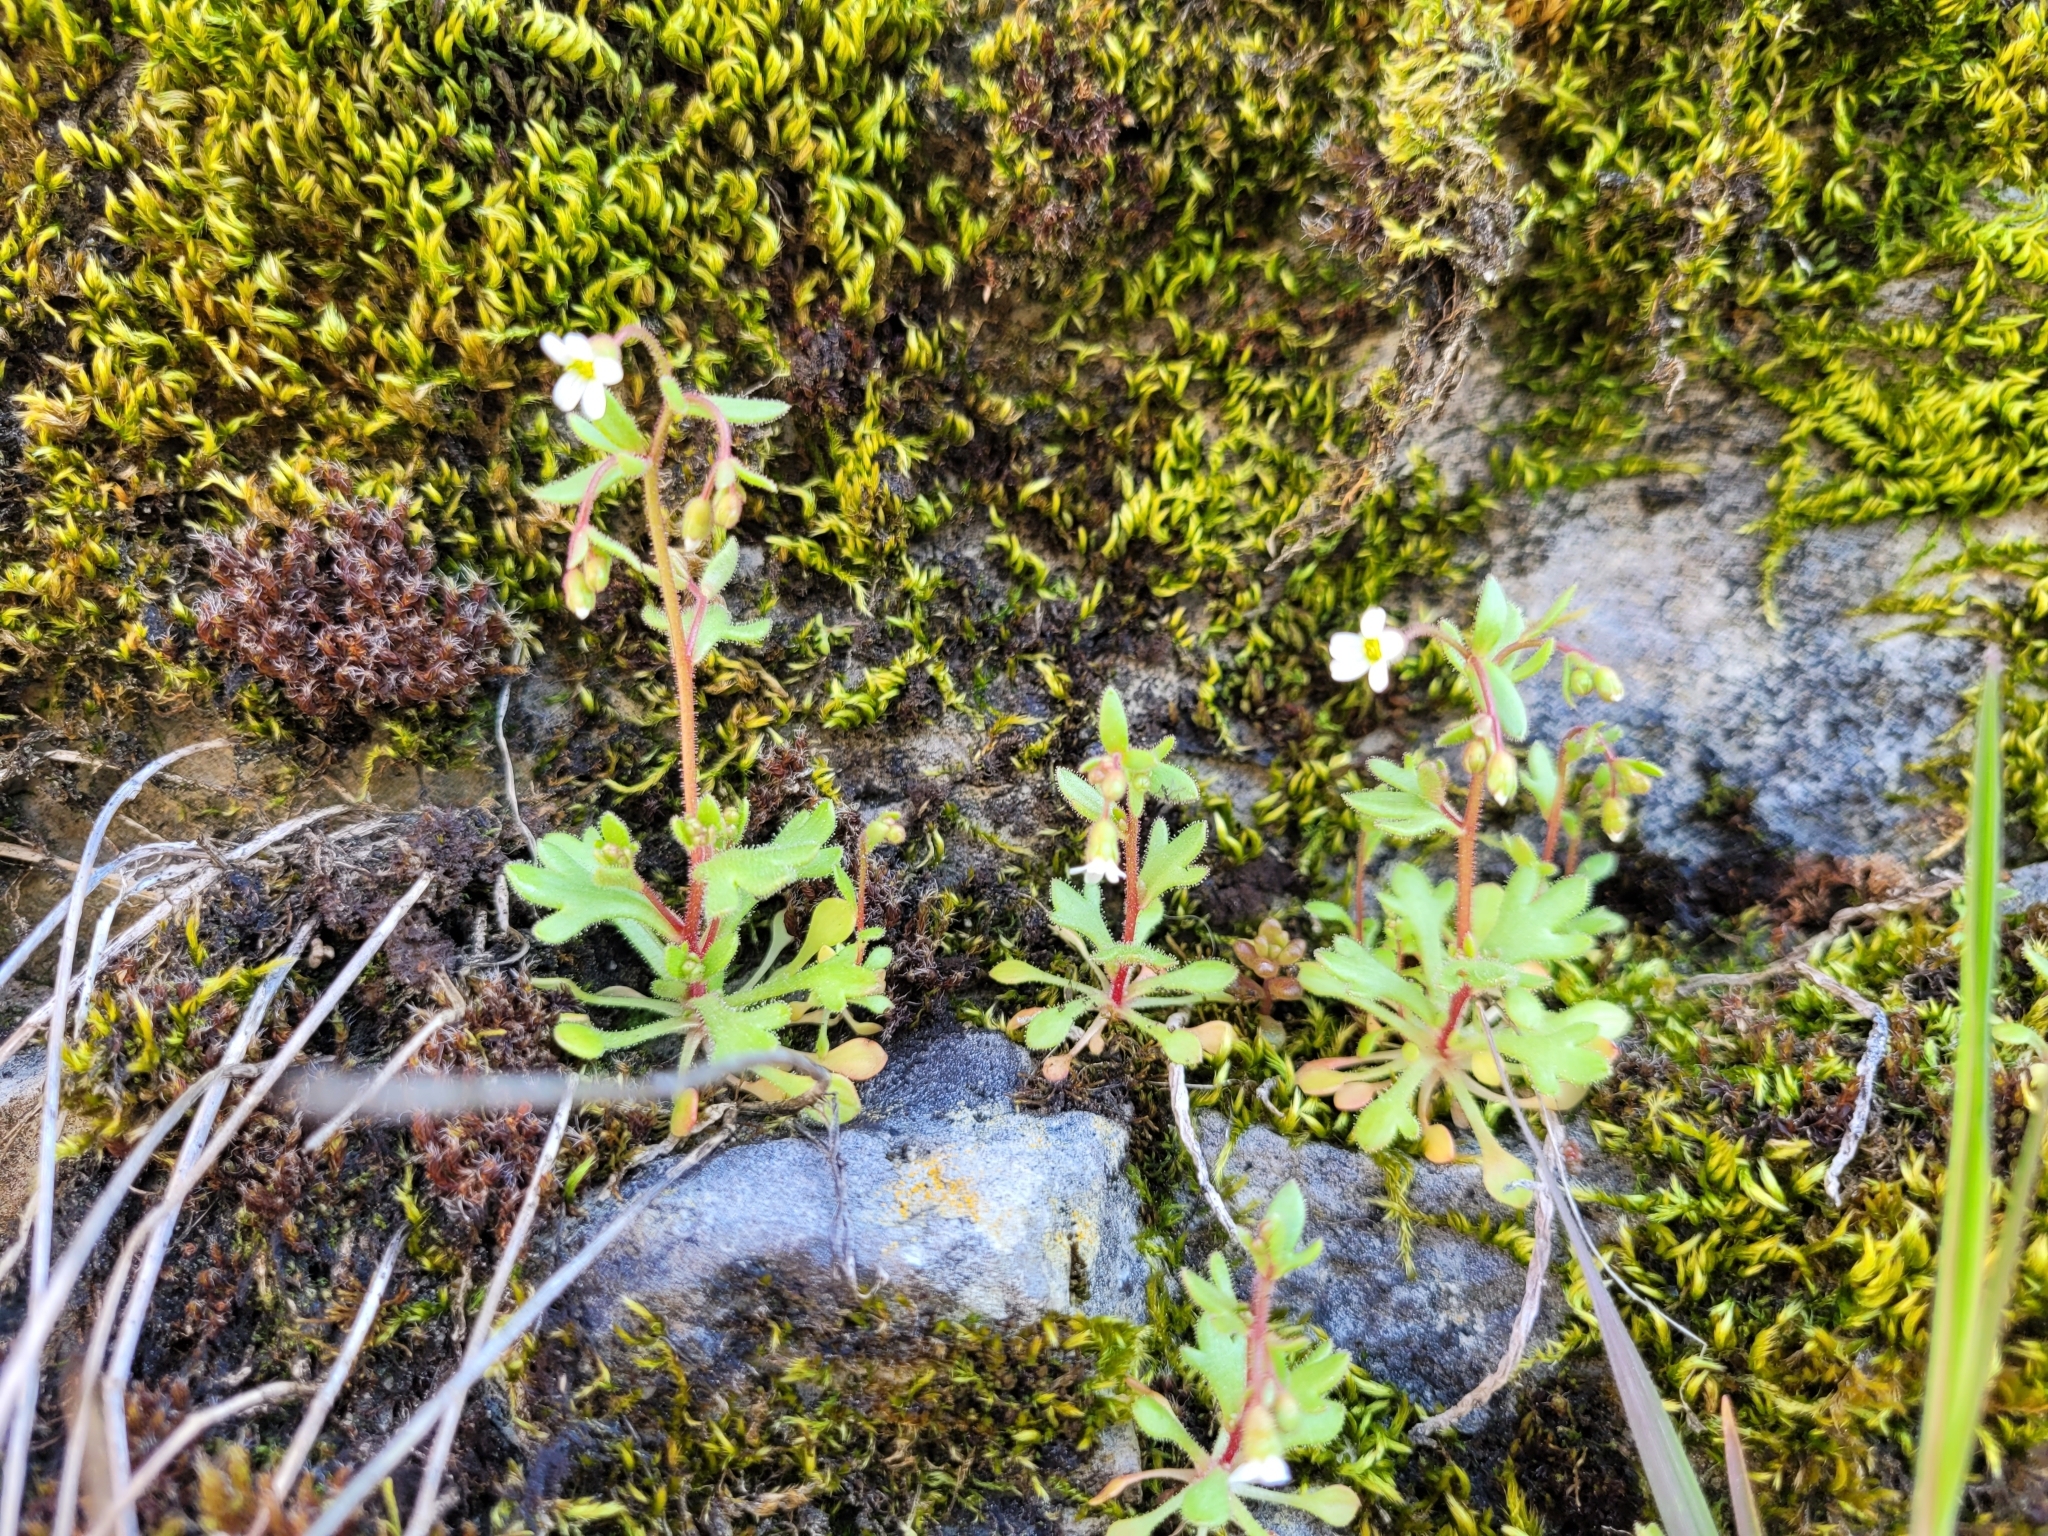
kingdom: Plantae
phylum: Tracheophyta
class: Magnoliopsida
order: Saxifragales
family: Saxifragaceae
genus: Saxifraga
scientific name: Saxifraga tridactylites
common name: Rue-leaved saxifrage
